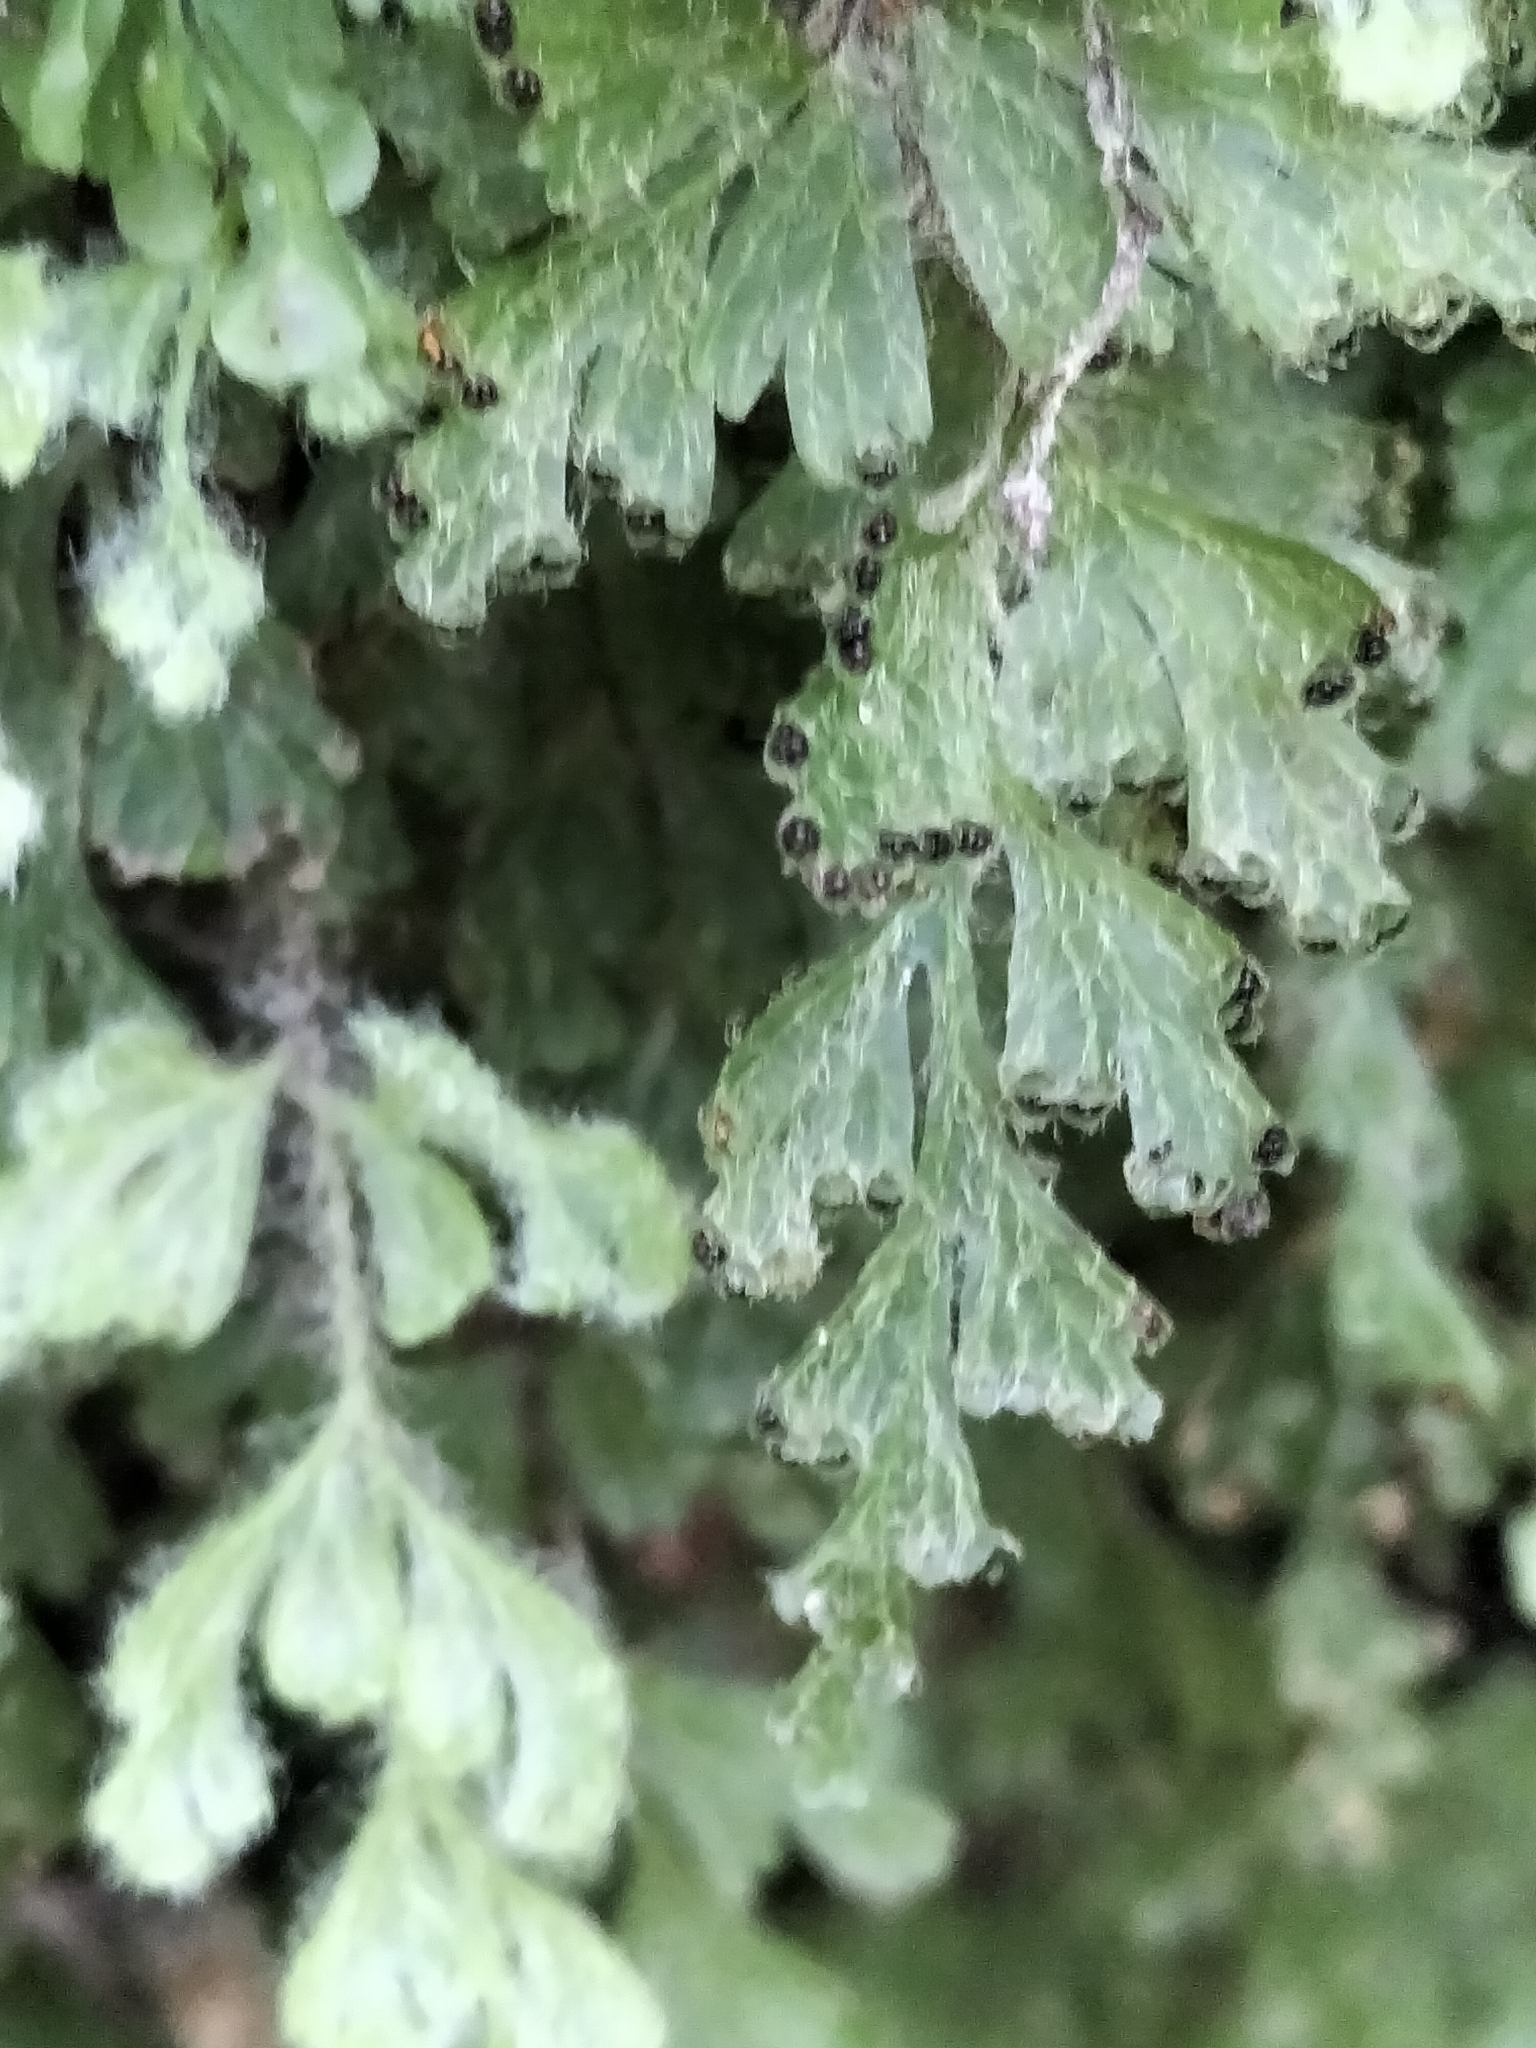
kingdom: Plantae
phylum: Tracheophyta
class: Polypodiopsida
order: Hymenophyllales
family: Hymenophyllaceae
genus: Hymenophyllum
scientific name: Hymenophyllum rufescens
